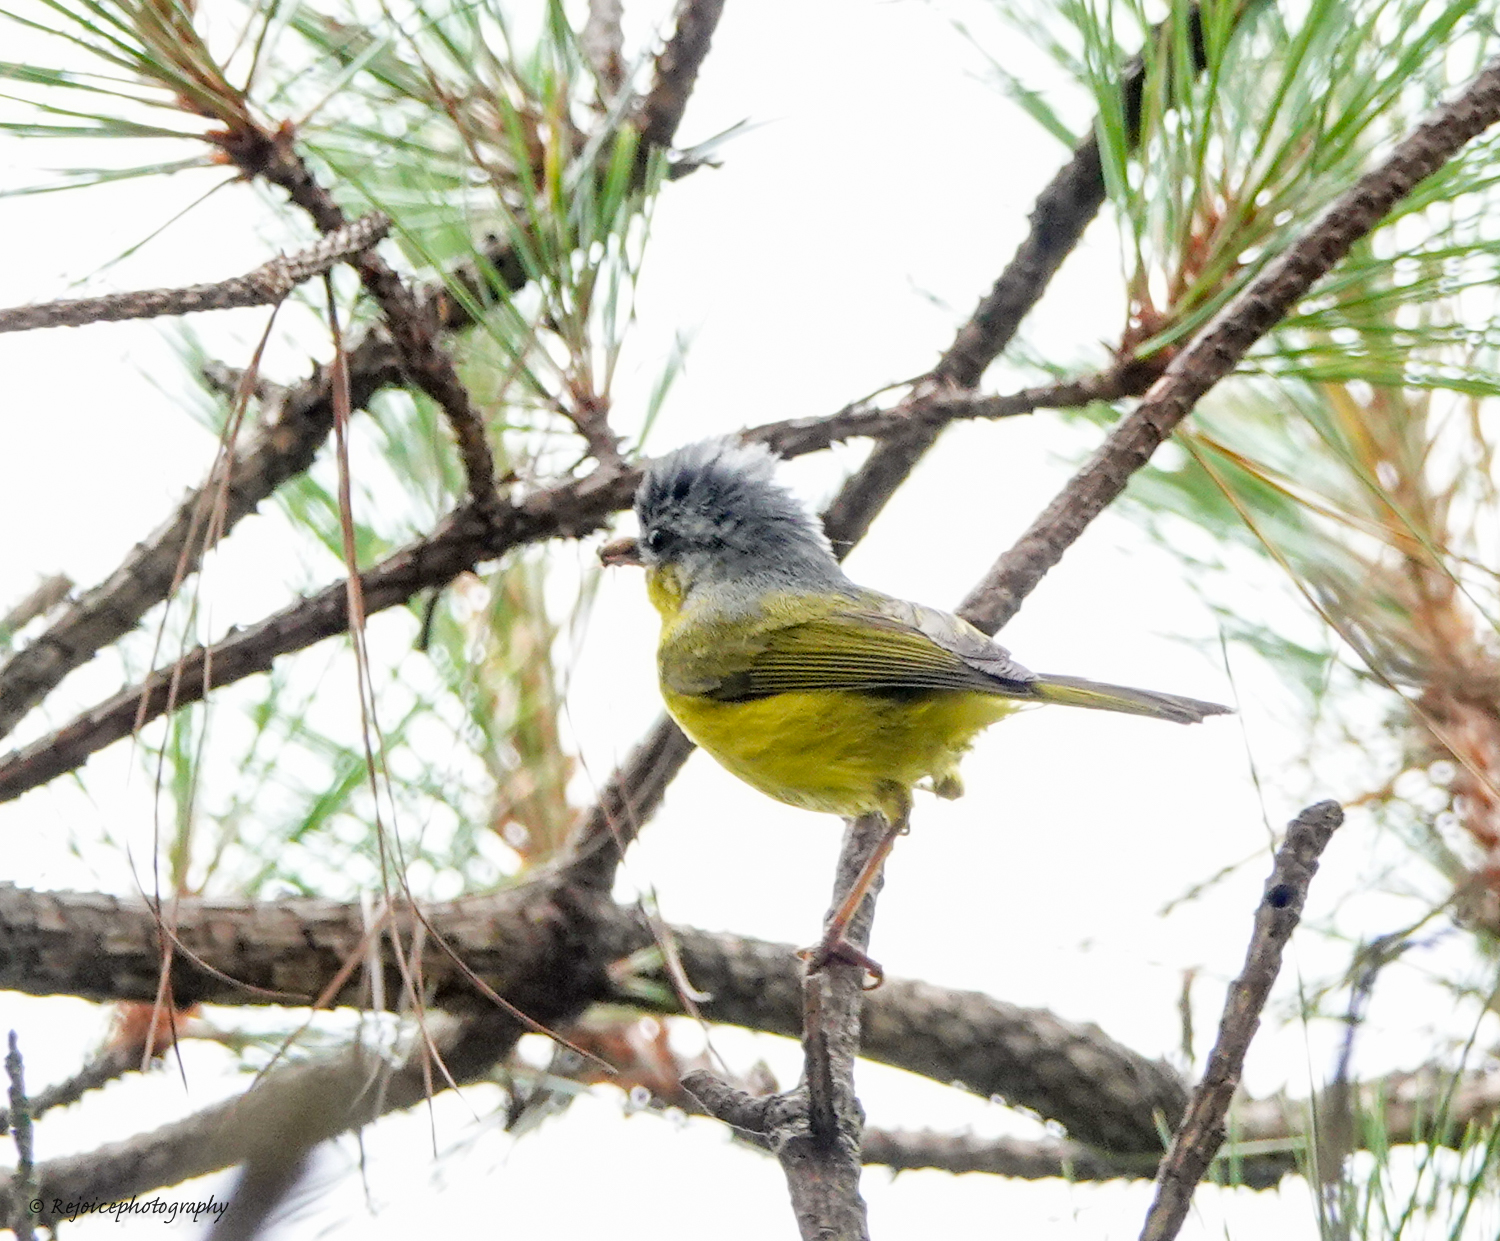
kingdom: Animalia
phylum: Chordata
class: Aves
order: Passeriformes
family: Phylloscopidae
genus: Phylloscopus
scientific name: Phylloscopus xanthoschistos
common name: Grey-hooded warbler
